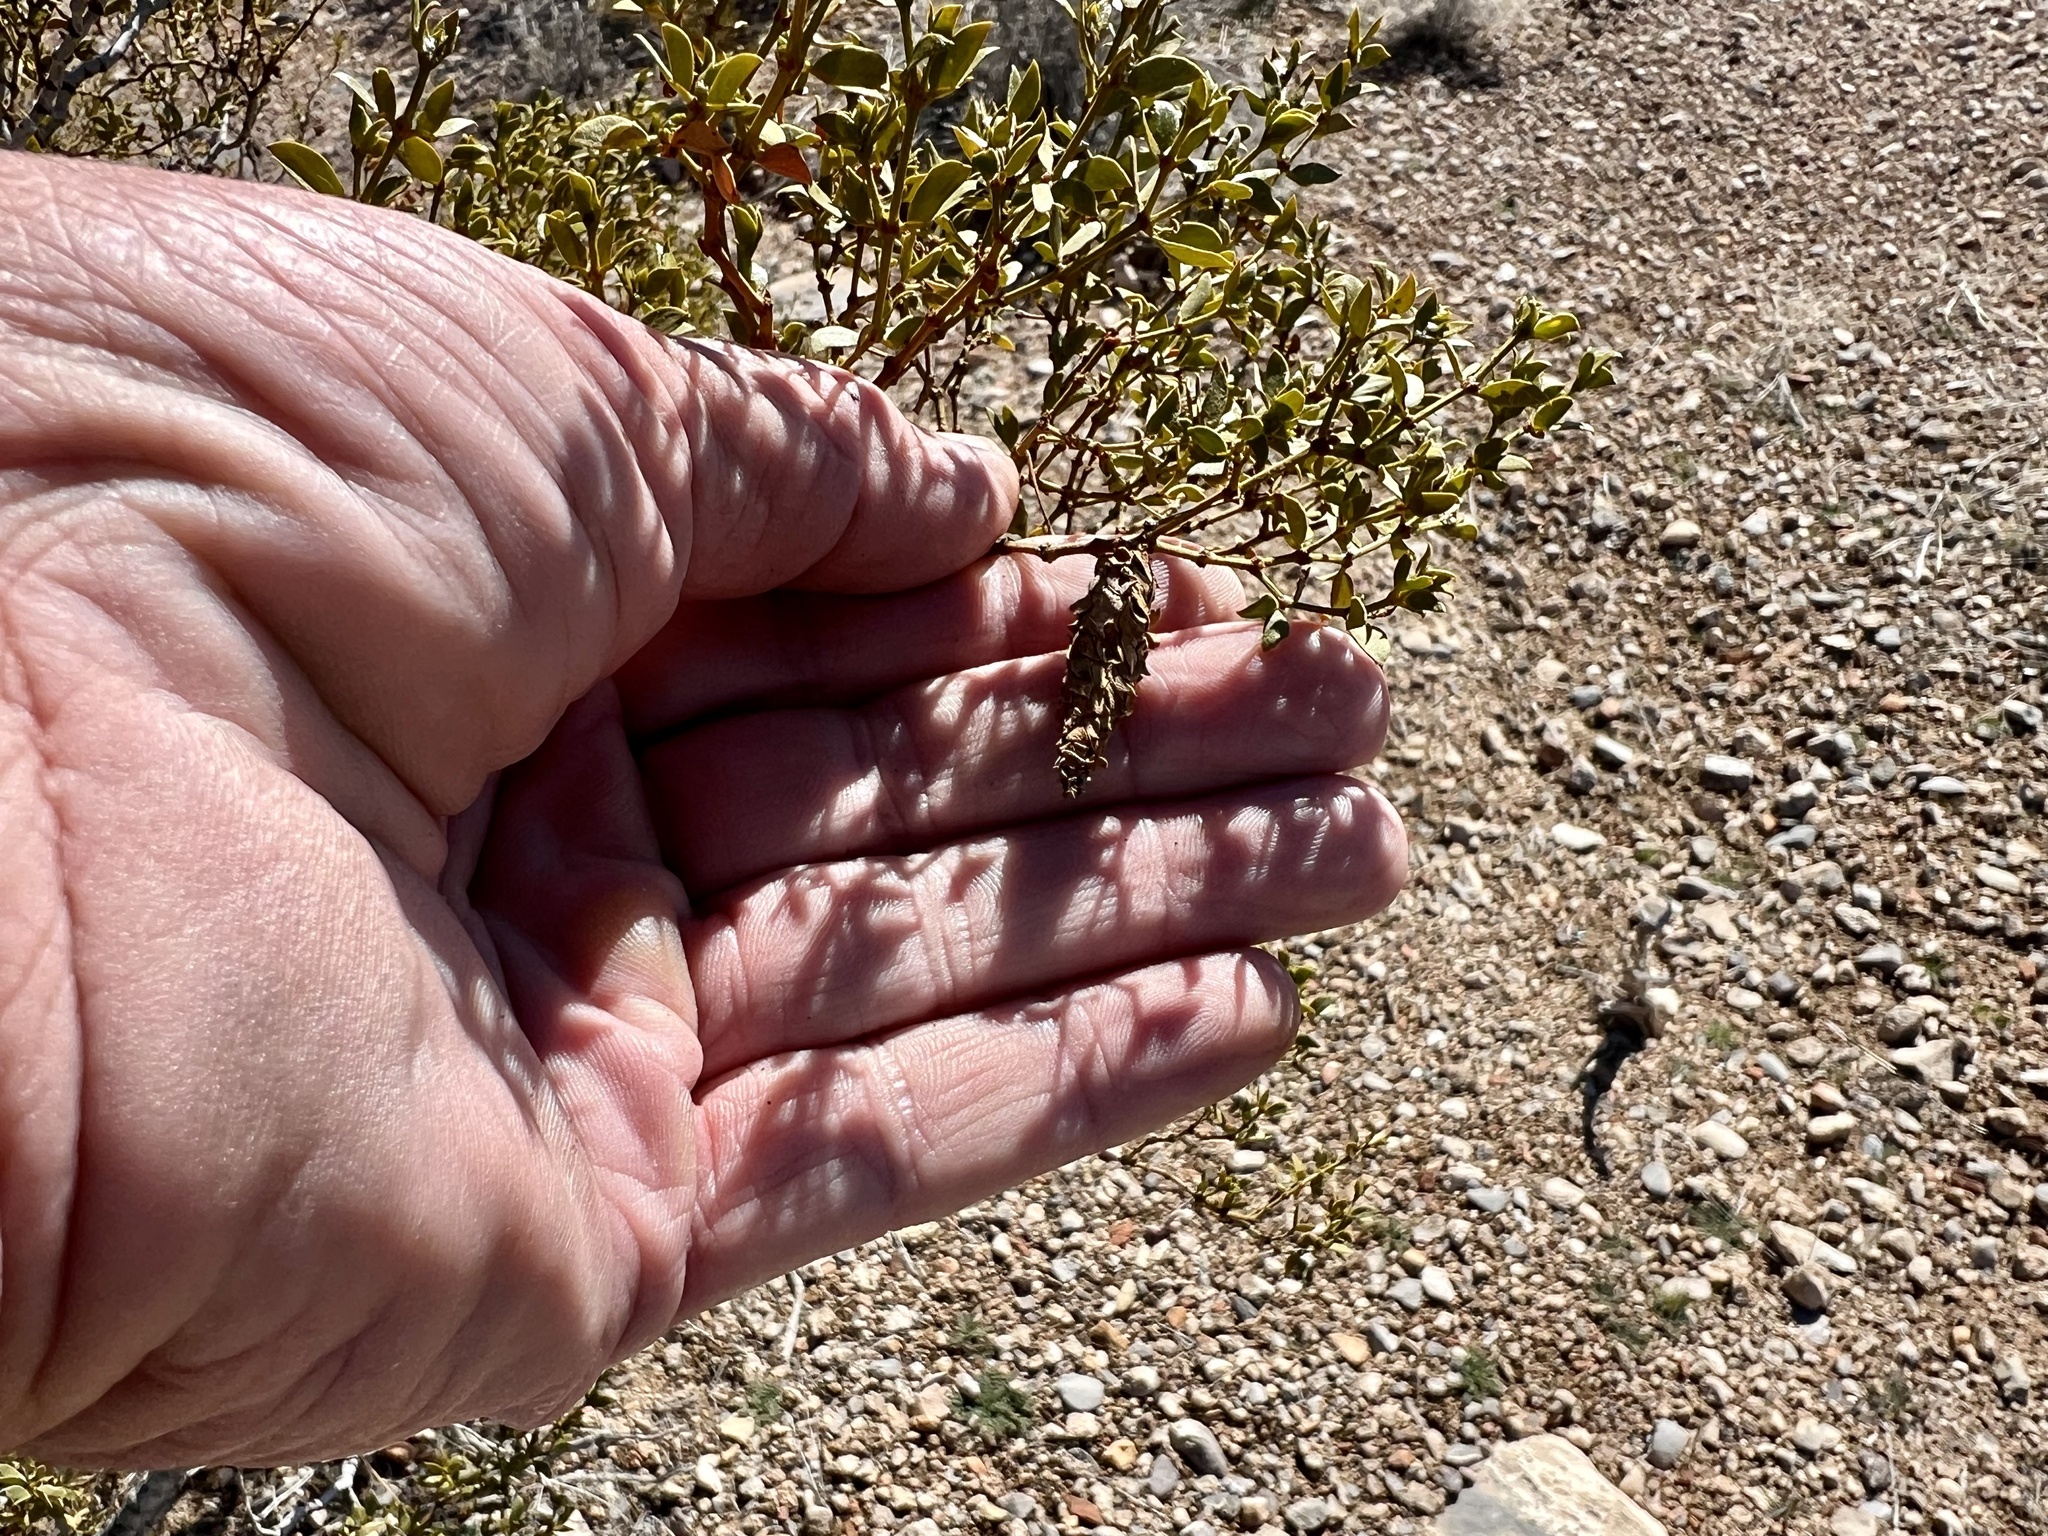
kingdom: Animalia
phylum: Arthropoda
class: Insecta
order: Lepidoptera
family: Psychidae
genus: Thyridopteryx
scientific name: Thyridopteryx meadii
